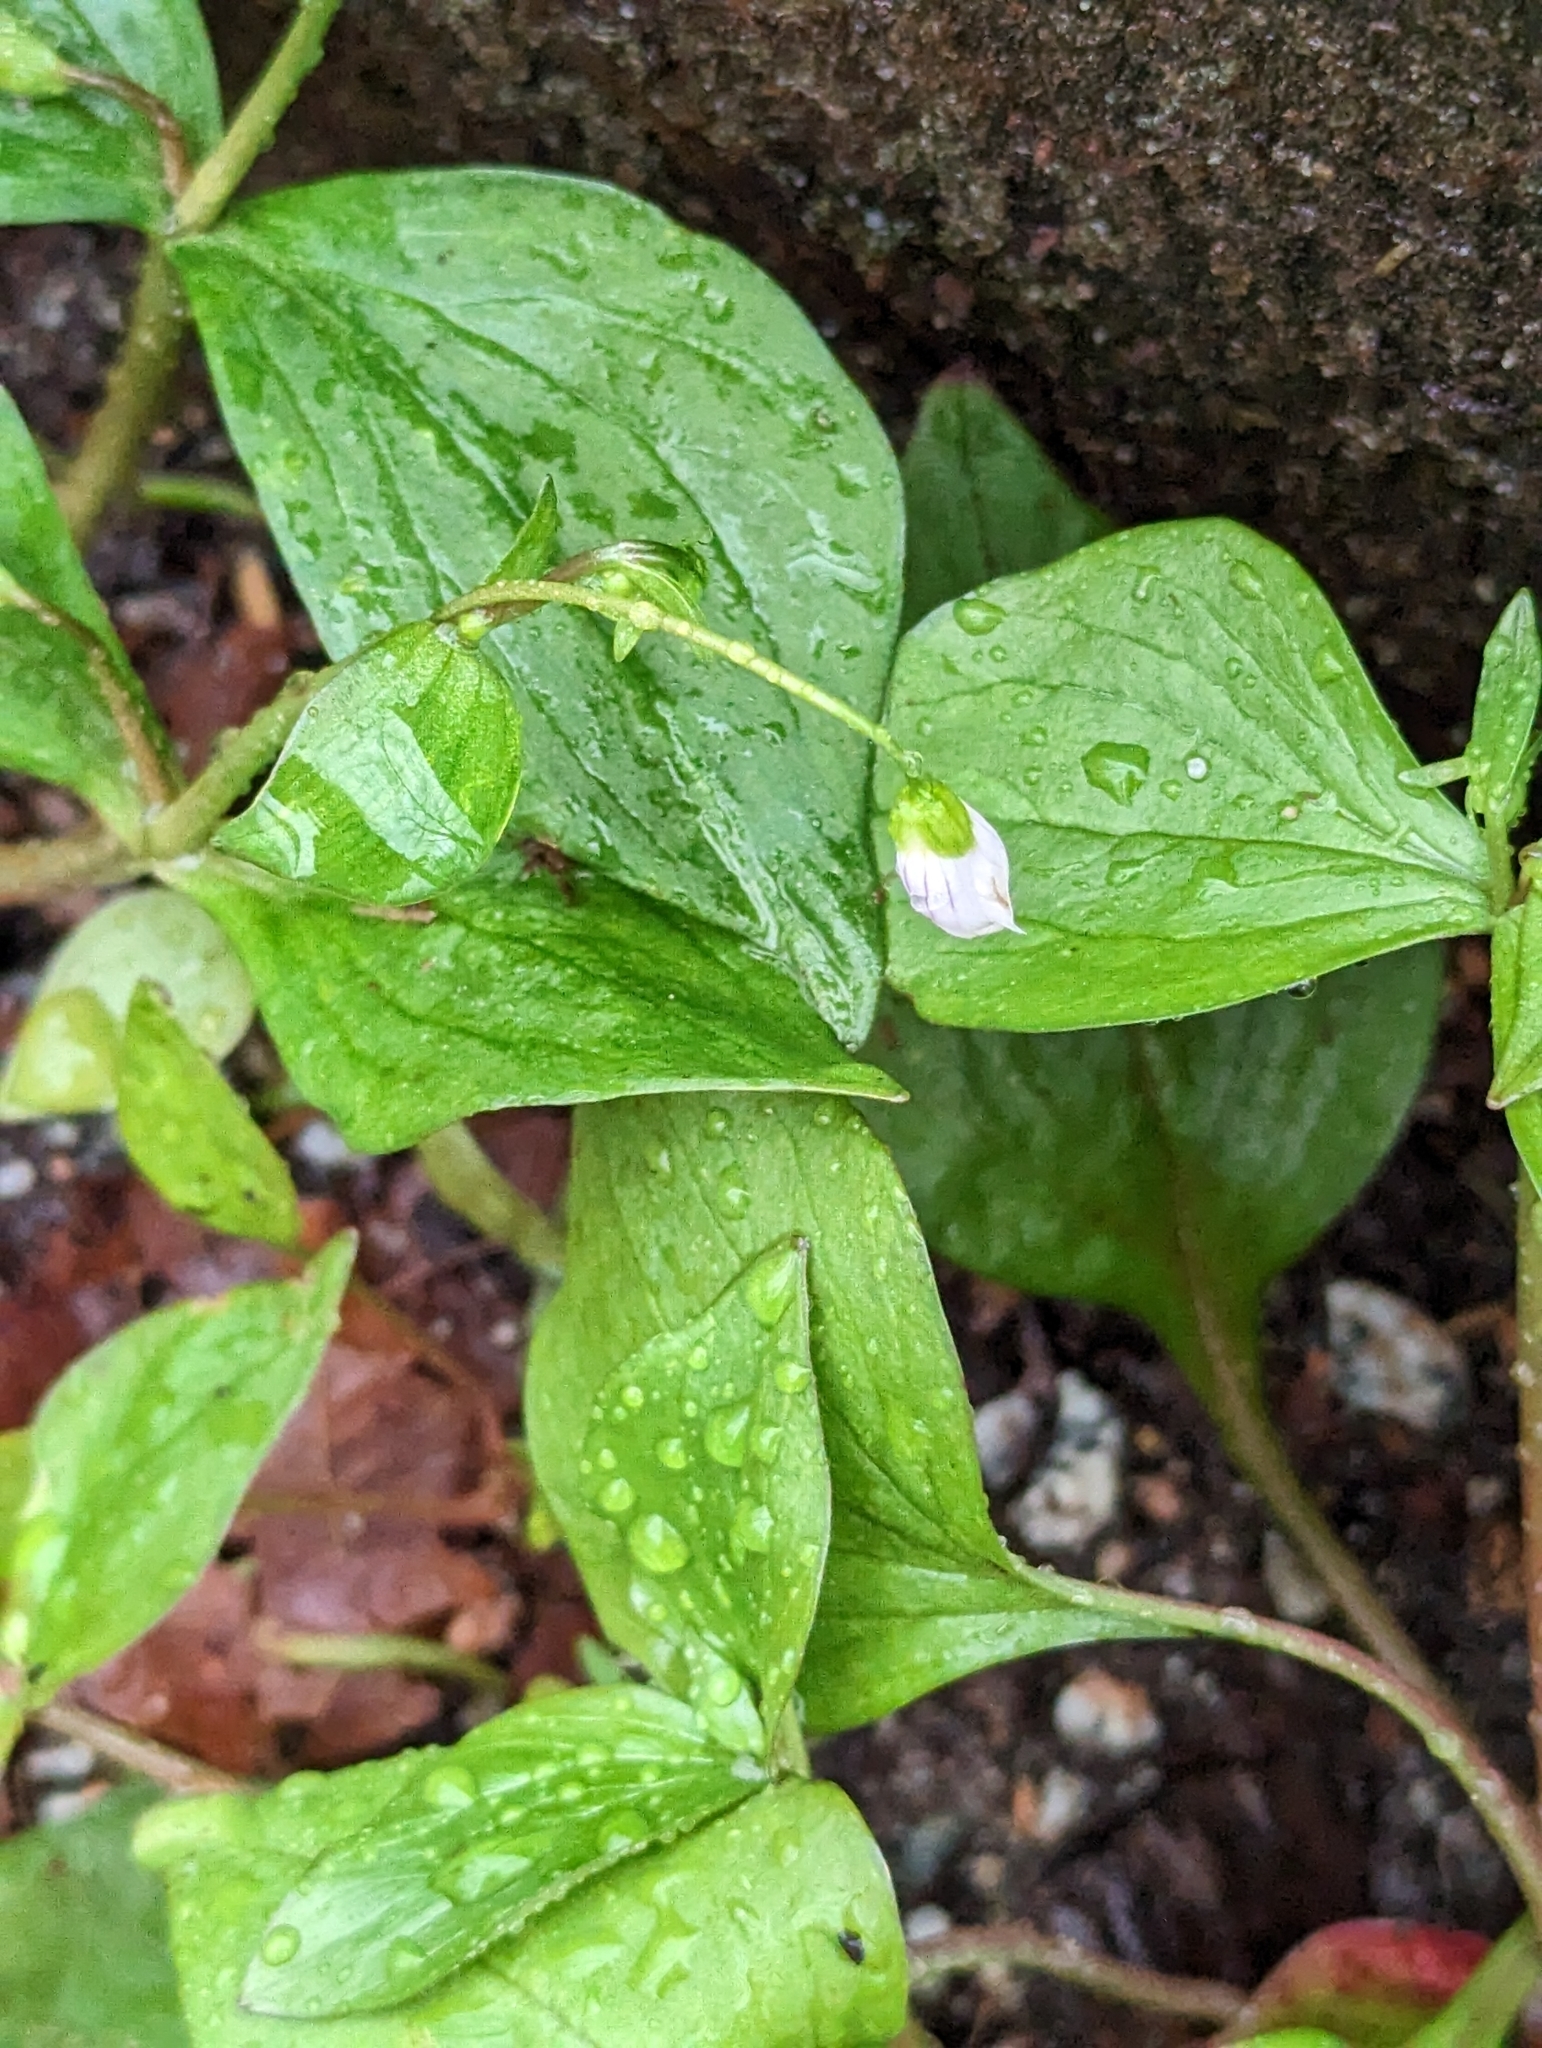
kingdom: Plantae
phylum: Tracheophyta
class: Magnoliopsida
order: Caryophyllales
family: Montiaceae
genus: Claytonia
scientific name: Claytonia sibirica
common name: Pink purslane
